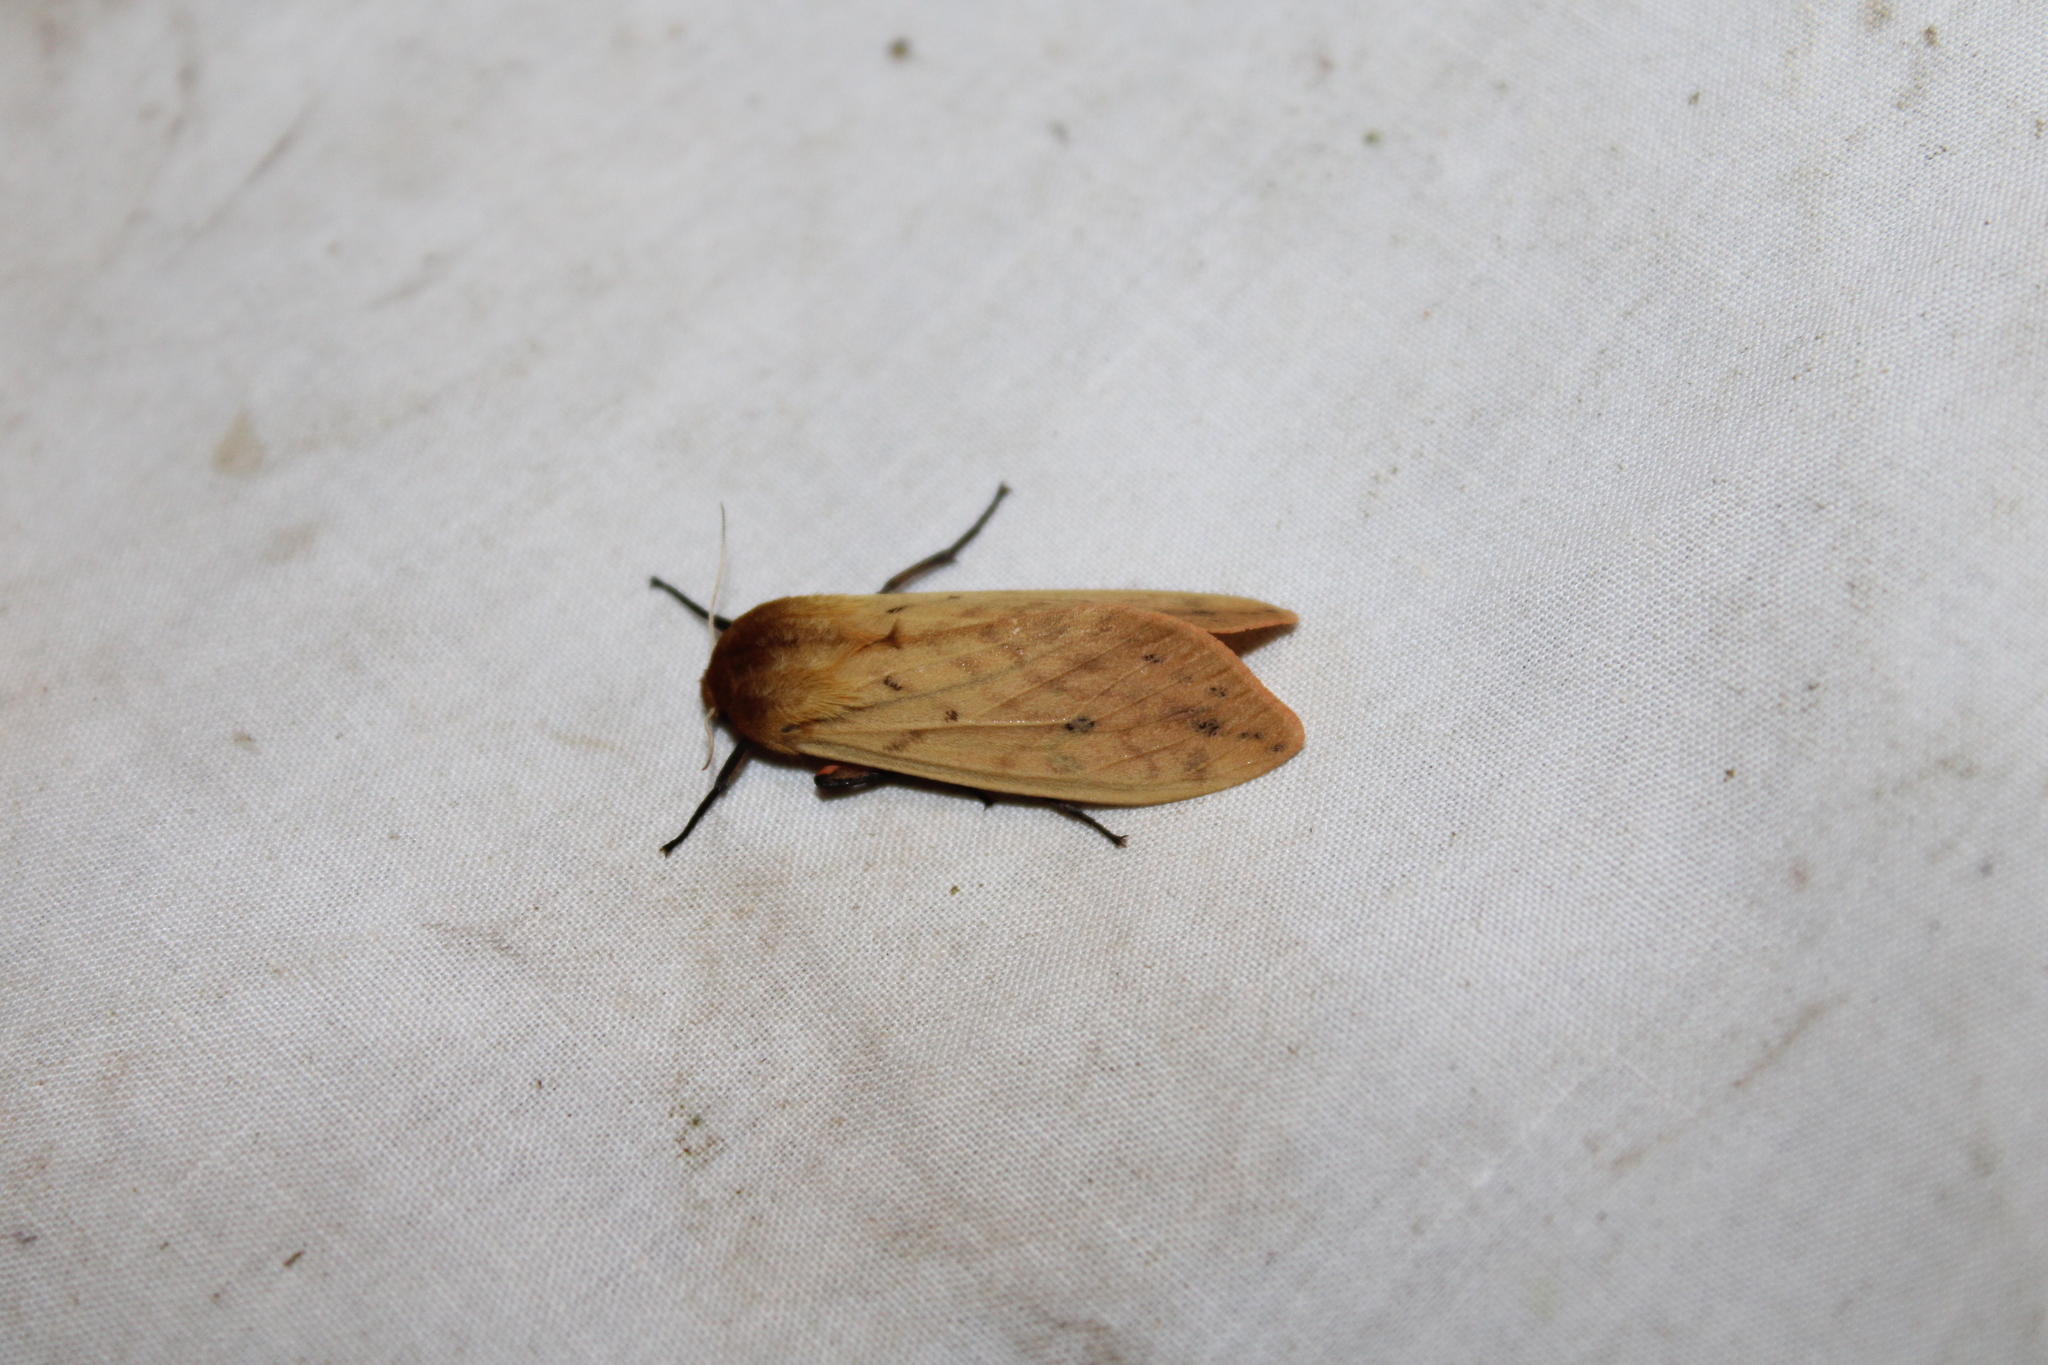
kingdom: Animalia
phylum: Arthropoda
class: Insecta
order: Lepidoptera
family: Erebidae
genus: Pyrrharctia
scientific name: Pyrrharctia isabella
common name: Isabella tiger moth
